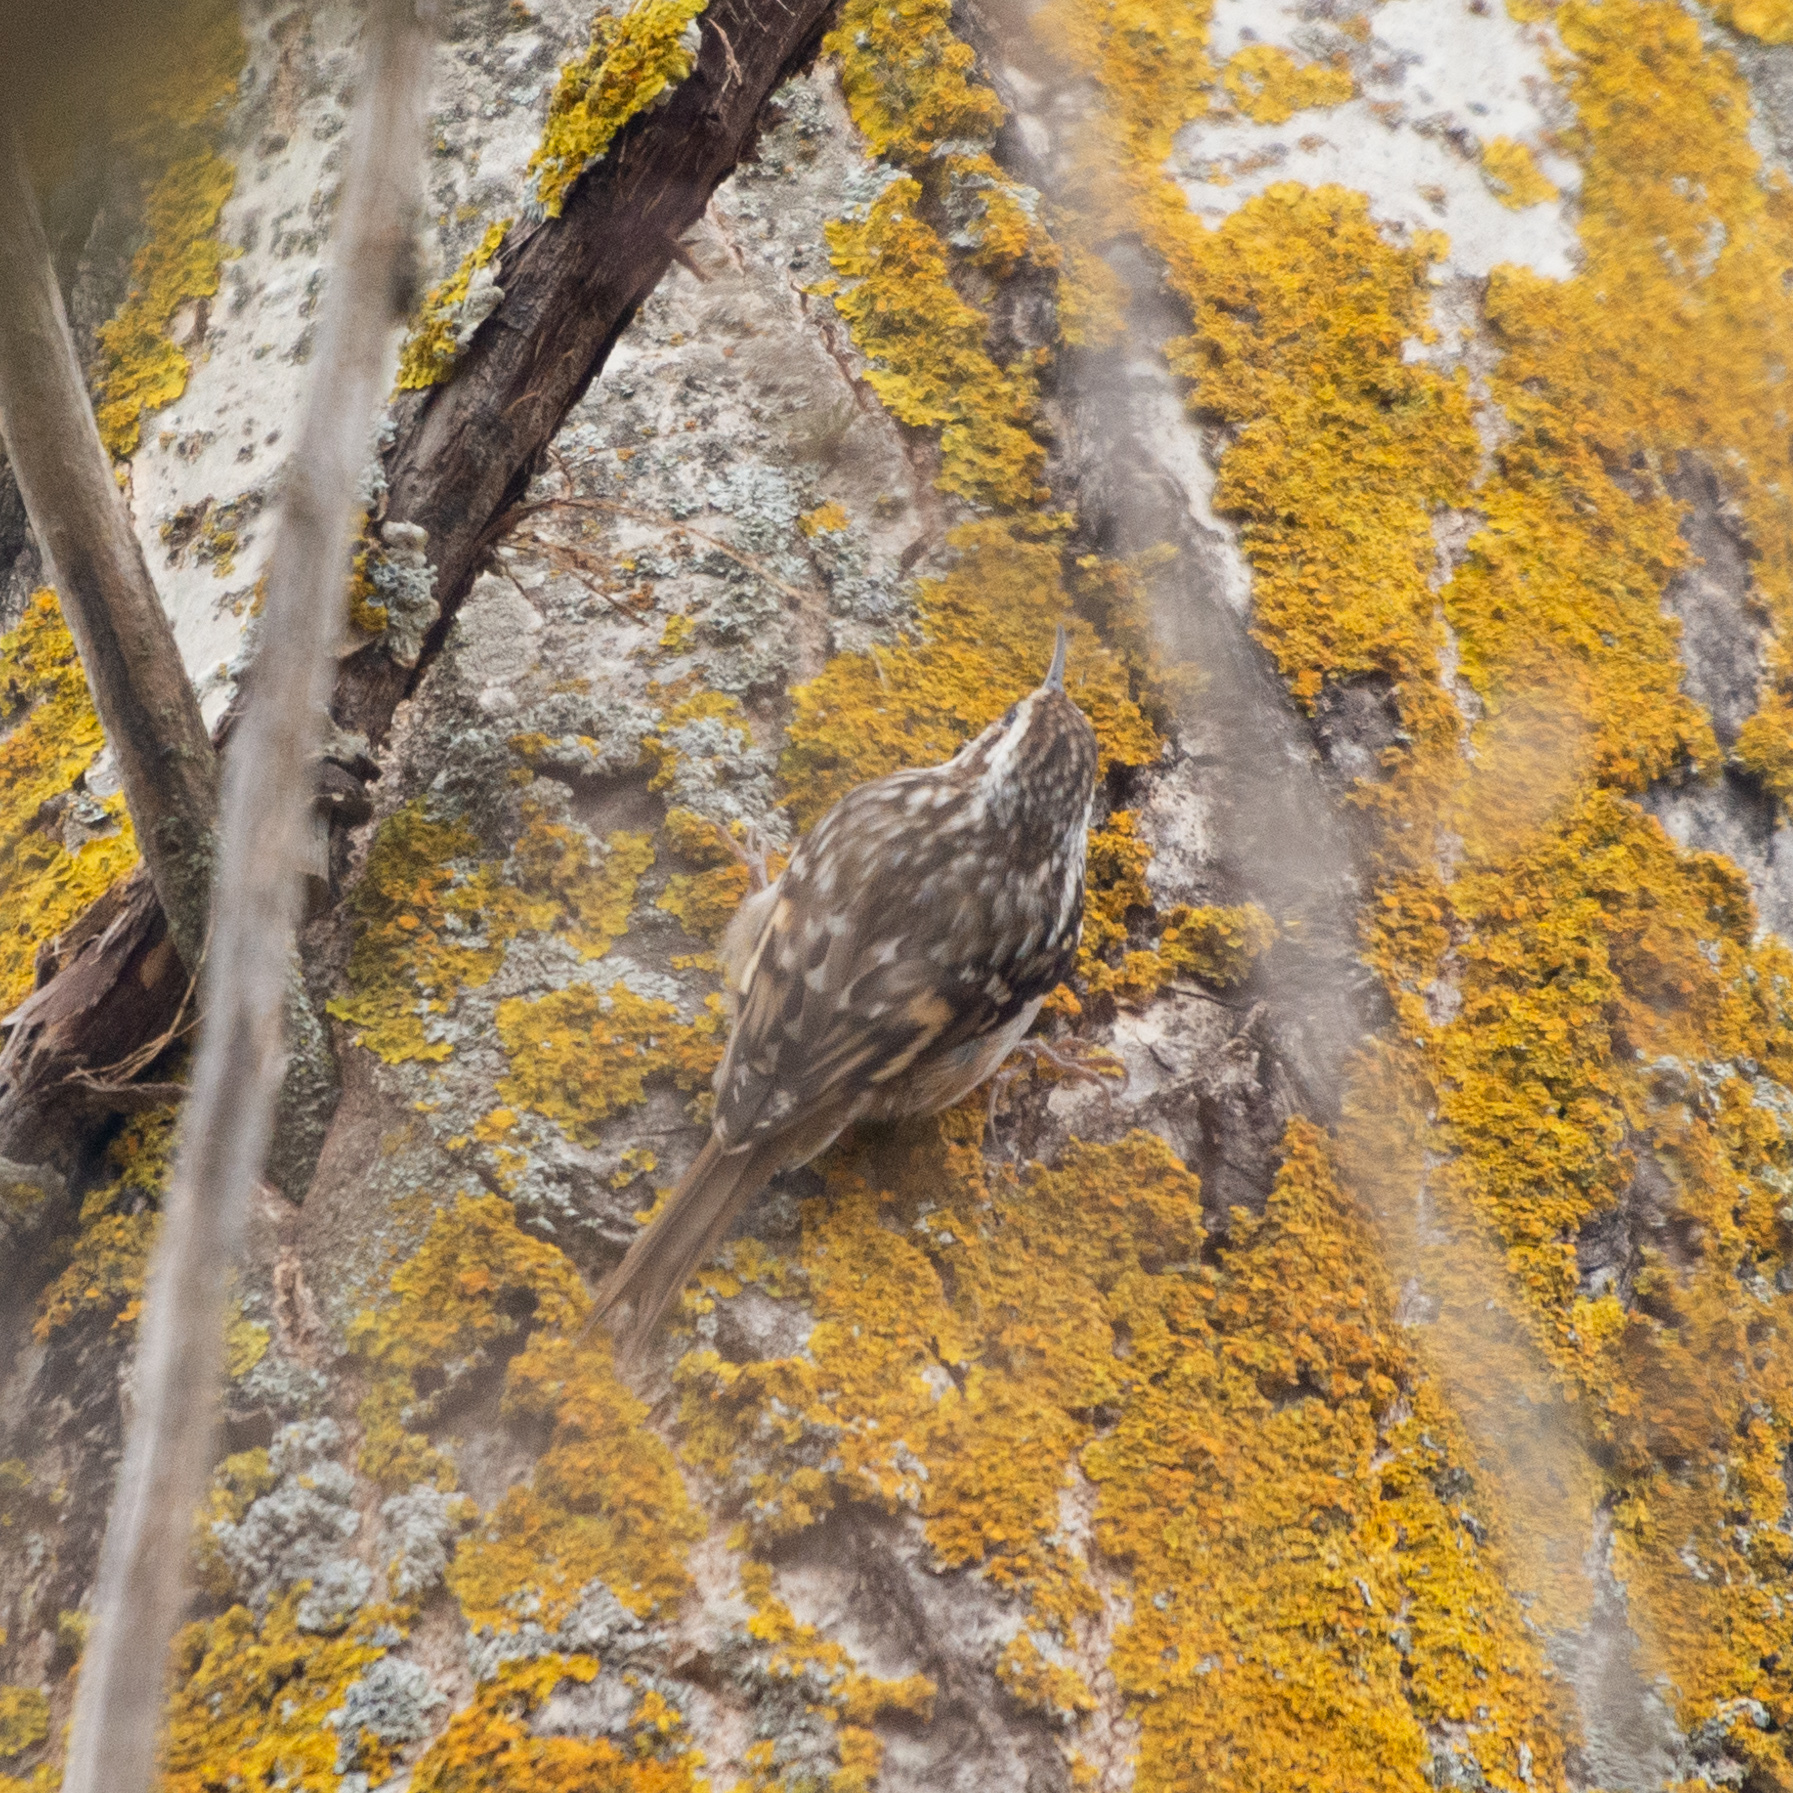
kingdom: Animalia
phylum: Chordata
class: Aves
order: Passeriformes
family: Certhiidae
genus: Certhia
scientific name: Certhia brachydactyla
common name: Short-toed treecreeper
